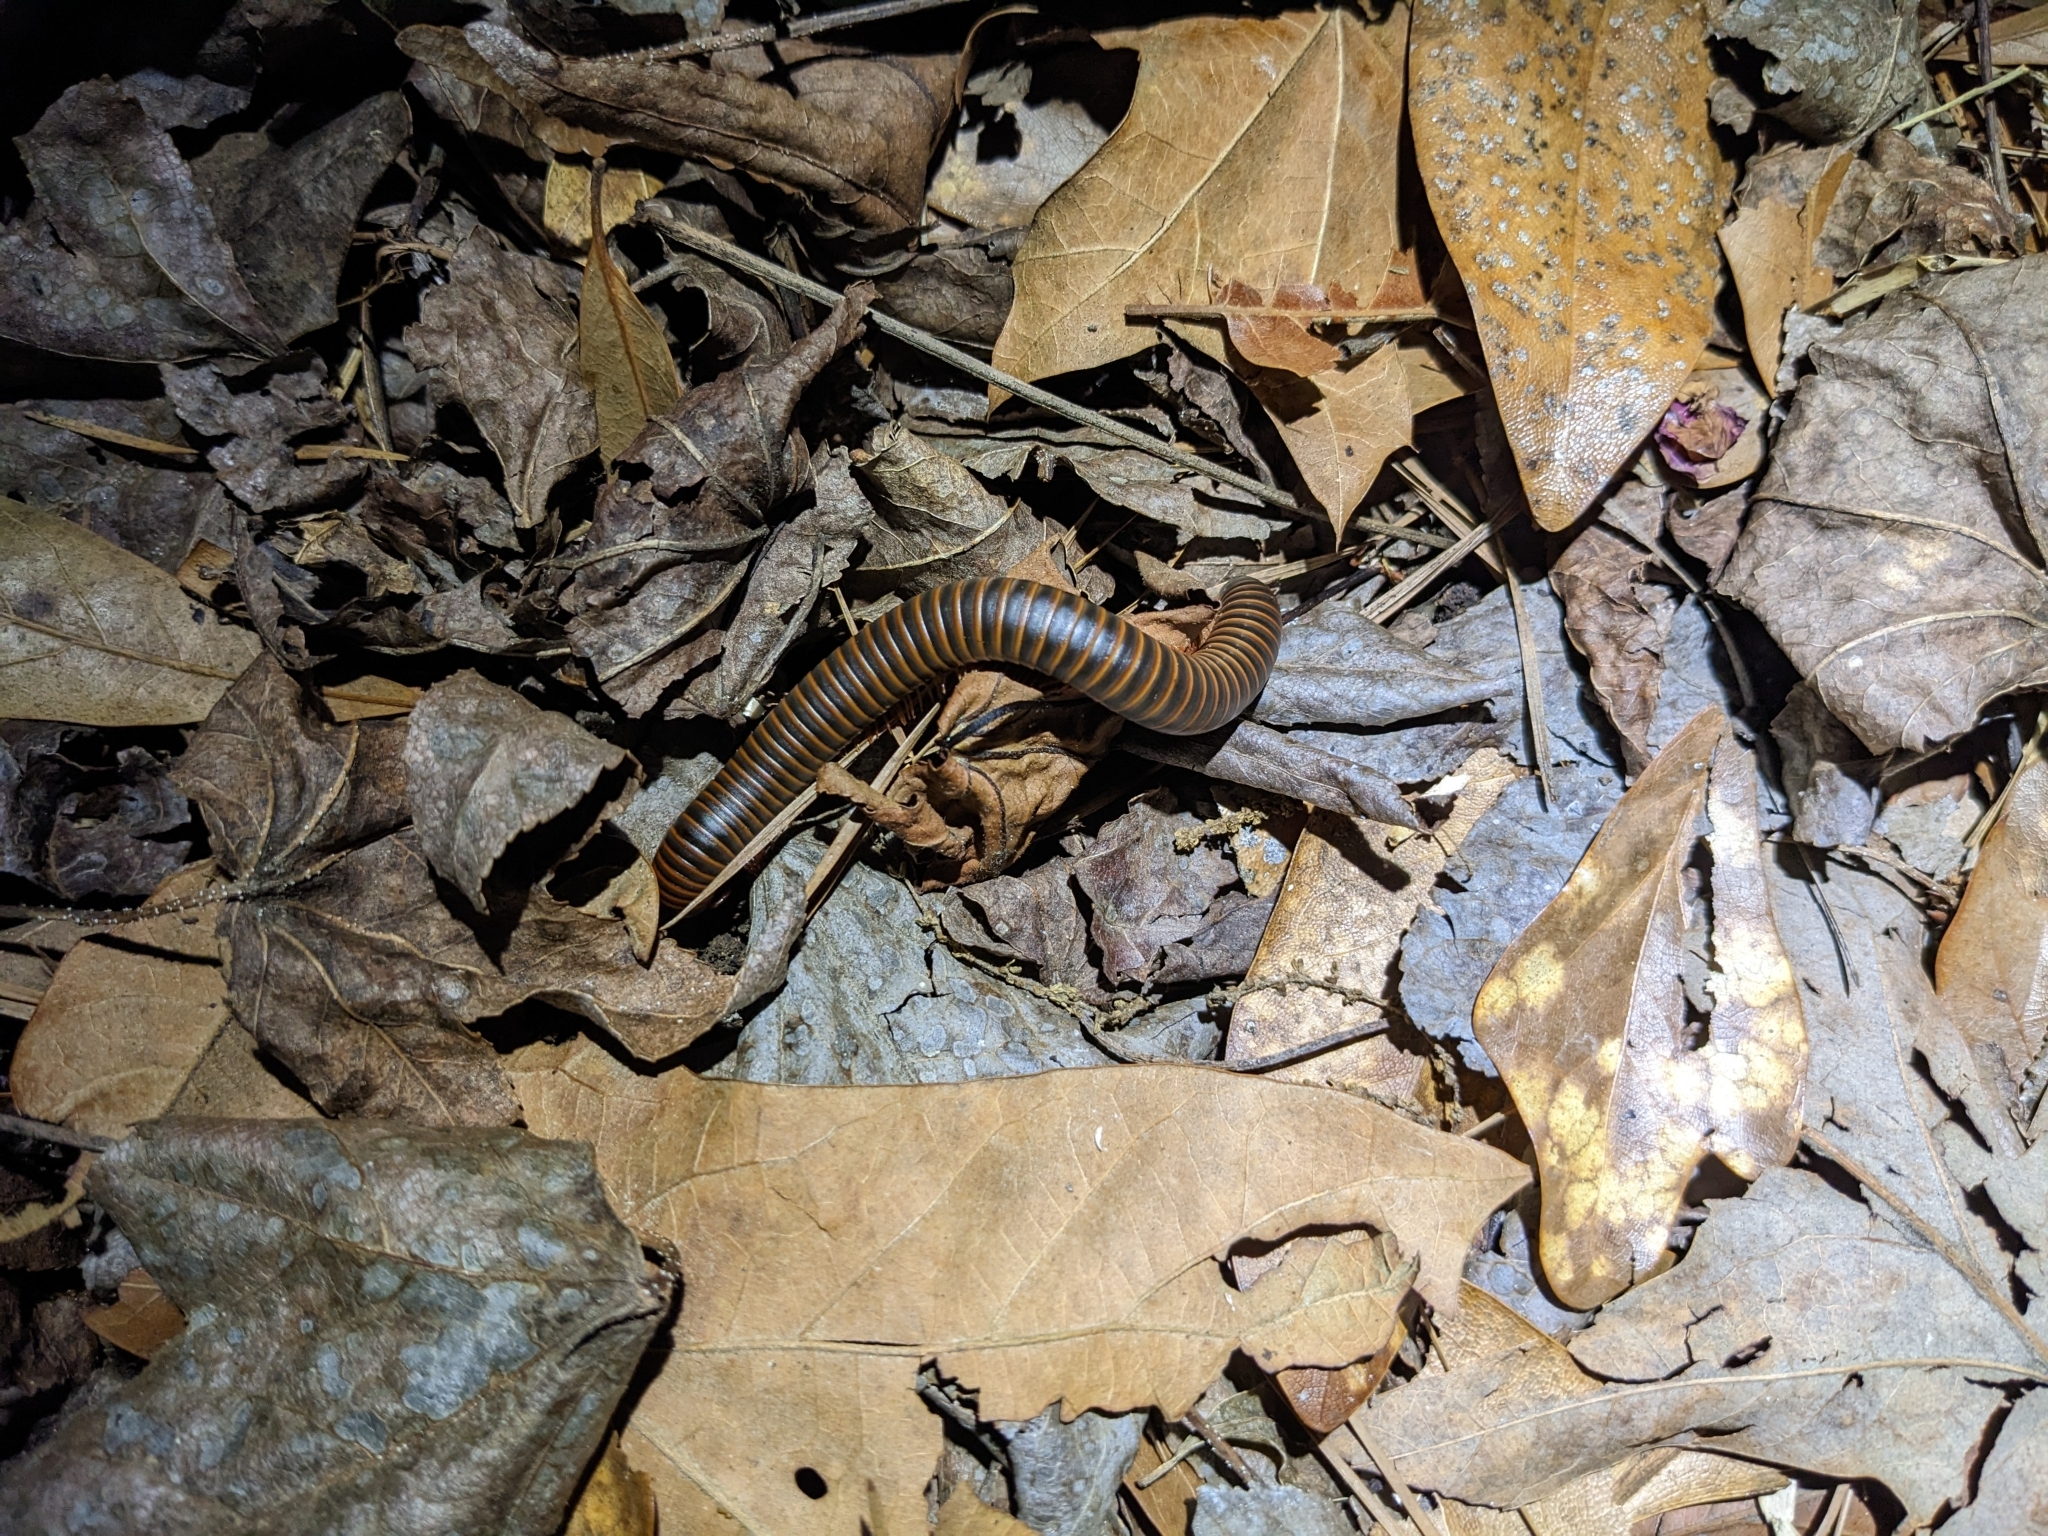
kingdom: Animalia
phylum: Arthropoda
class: Diplopoda
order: Spirobolida
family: Spirobolidae
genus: Narceus
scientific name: Narceus
